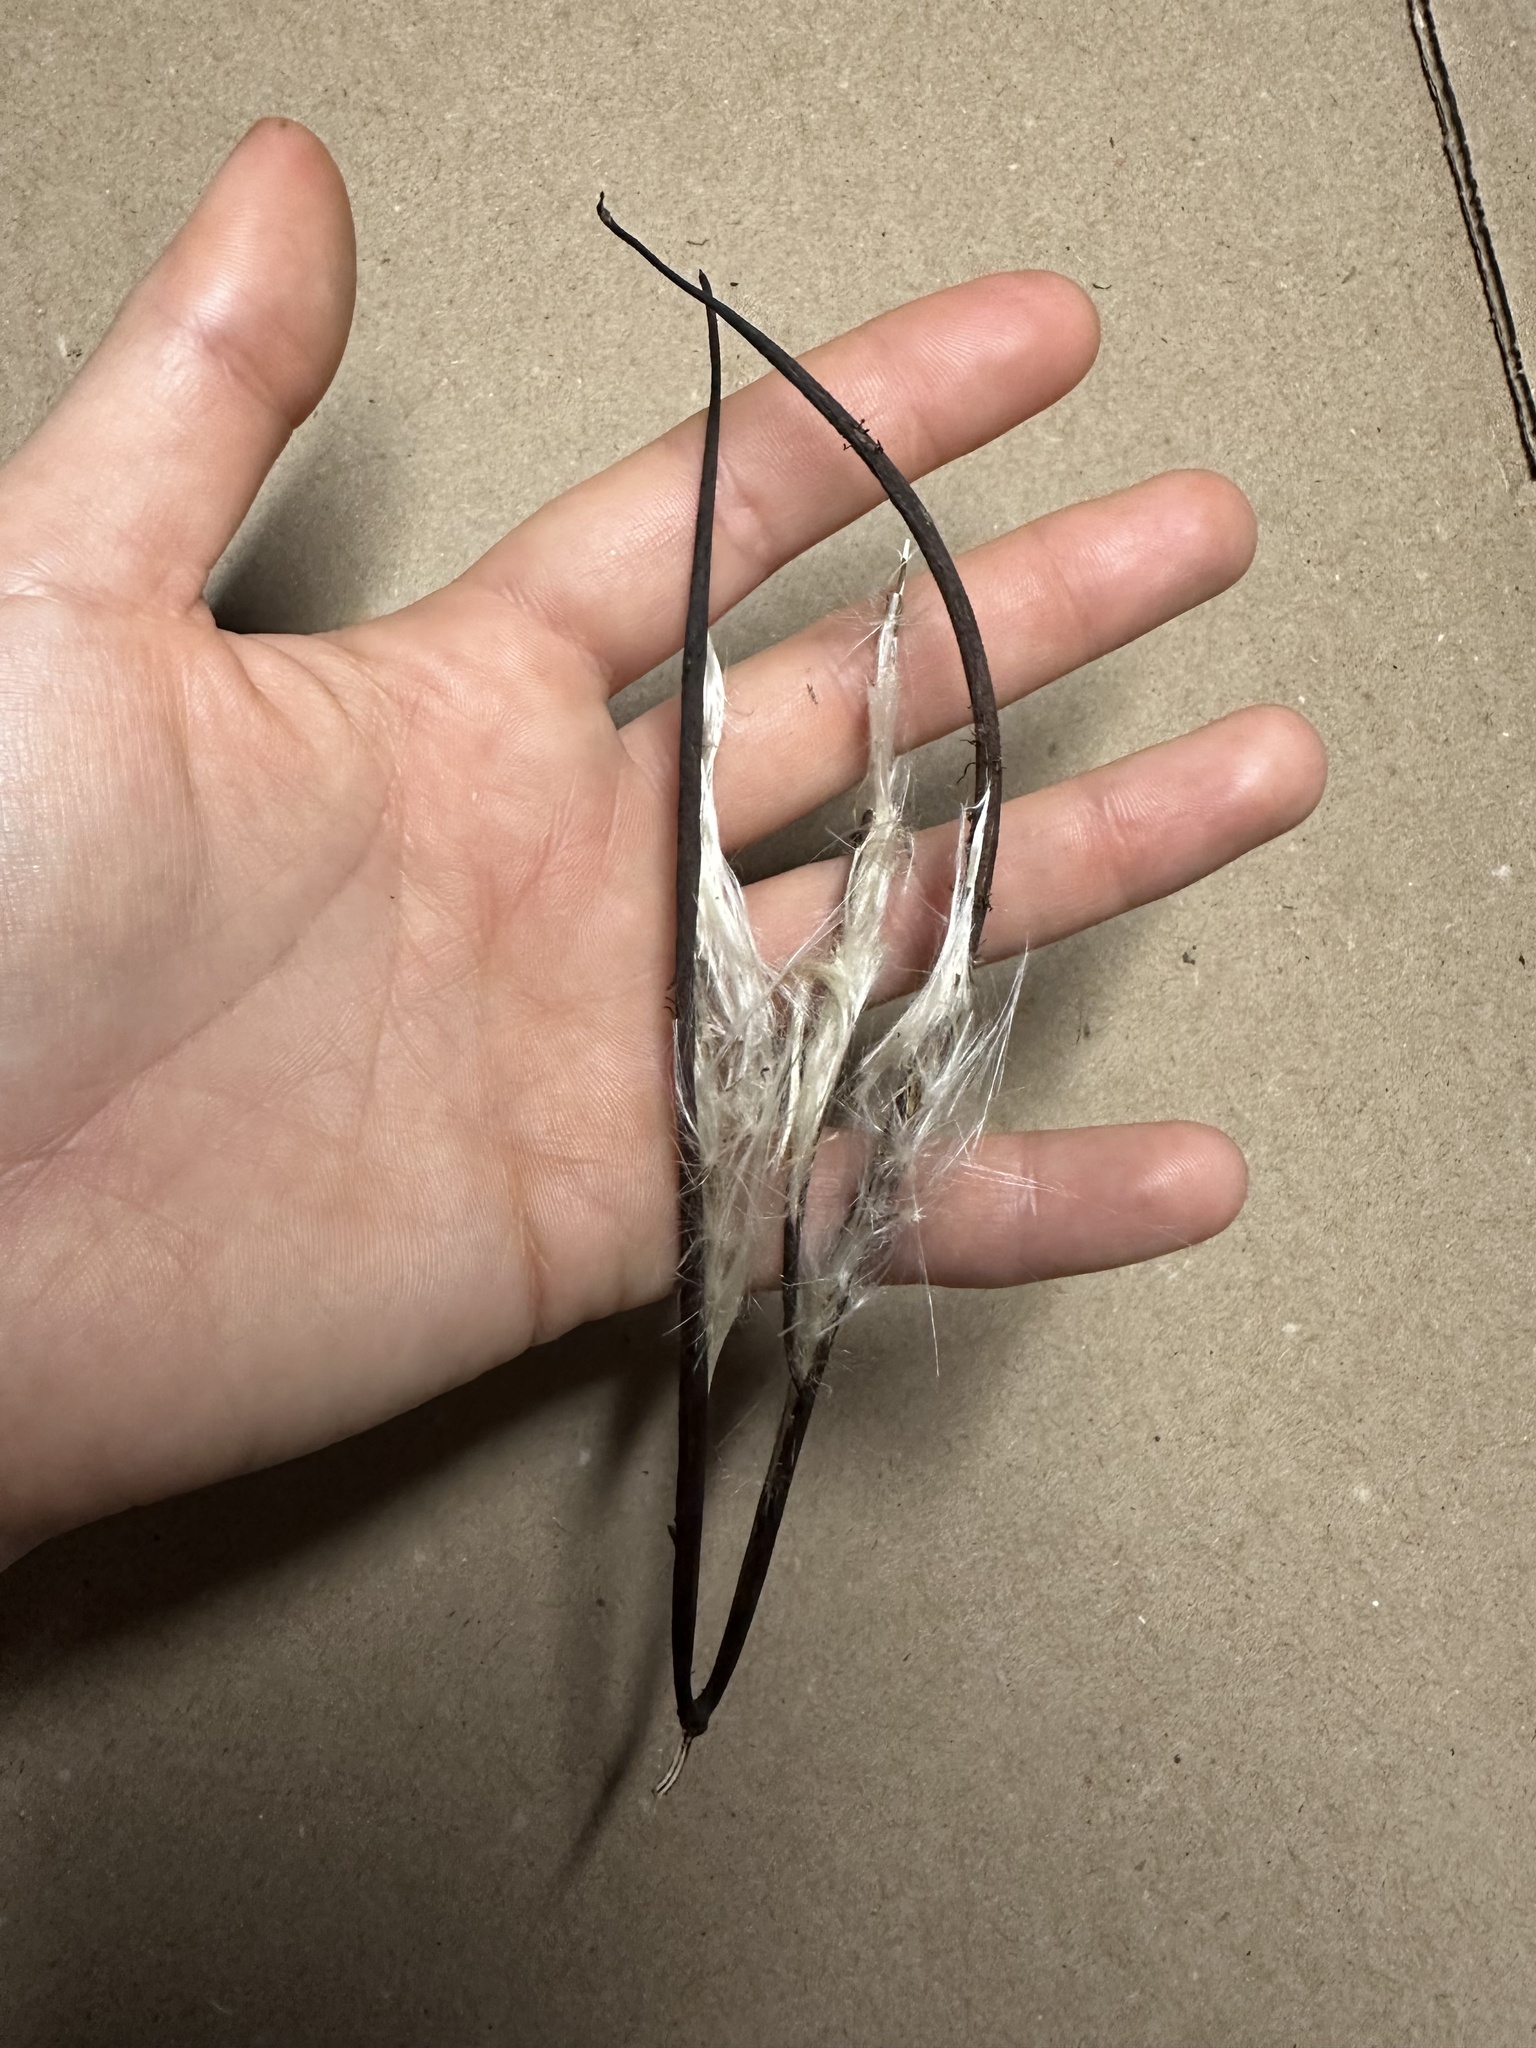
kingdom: Plantae
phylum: Tracheophyta
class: Magnoliopsida
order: Gentianales
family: Apocynaceae
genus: Apocynum
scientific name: Apocynum cannabinum
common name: Hemp dogbane
